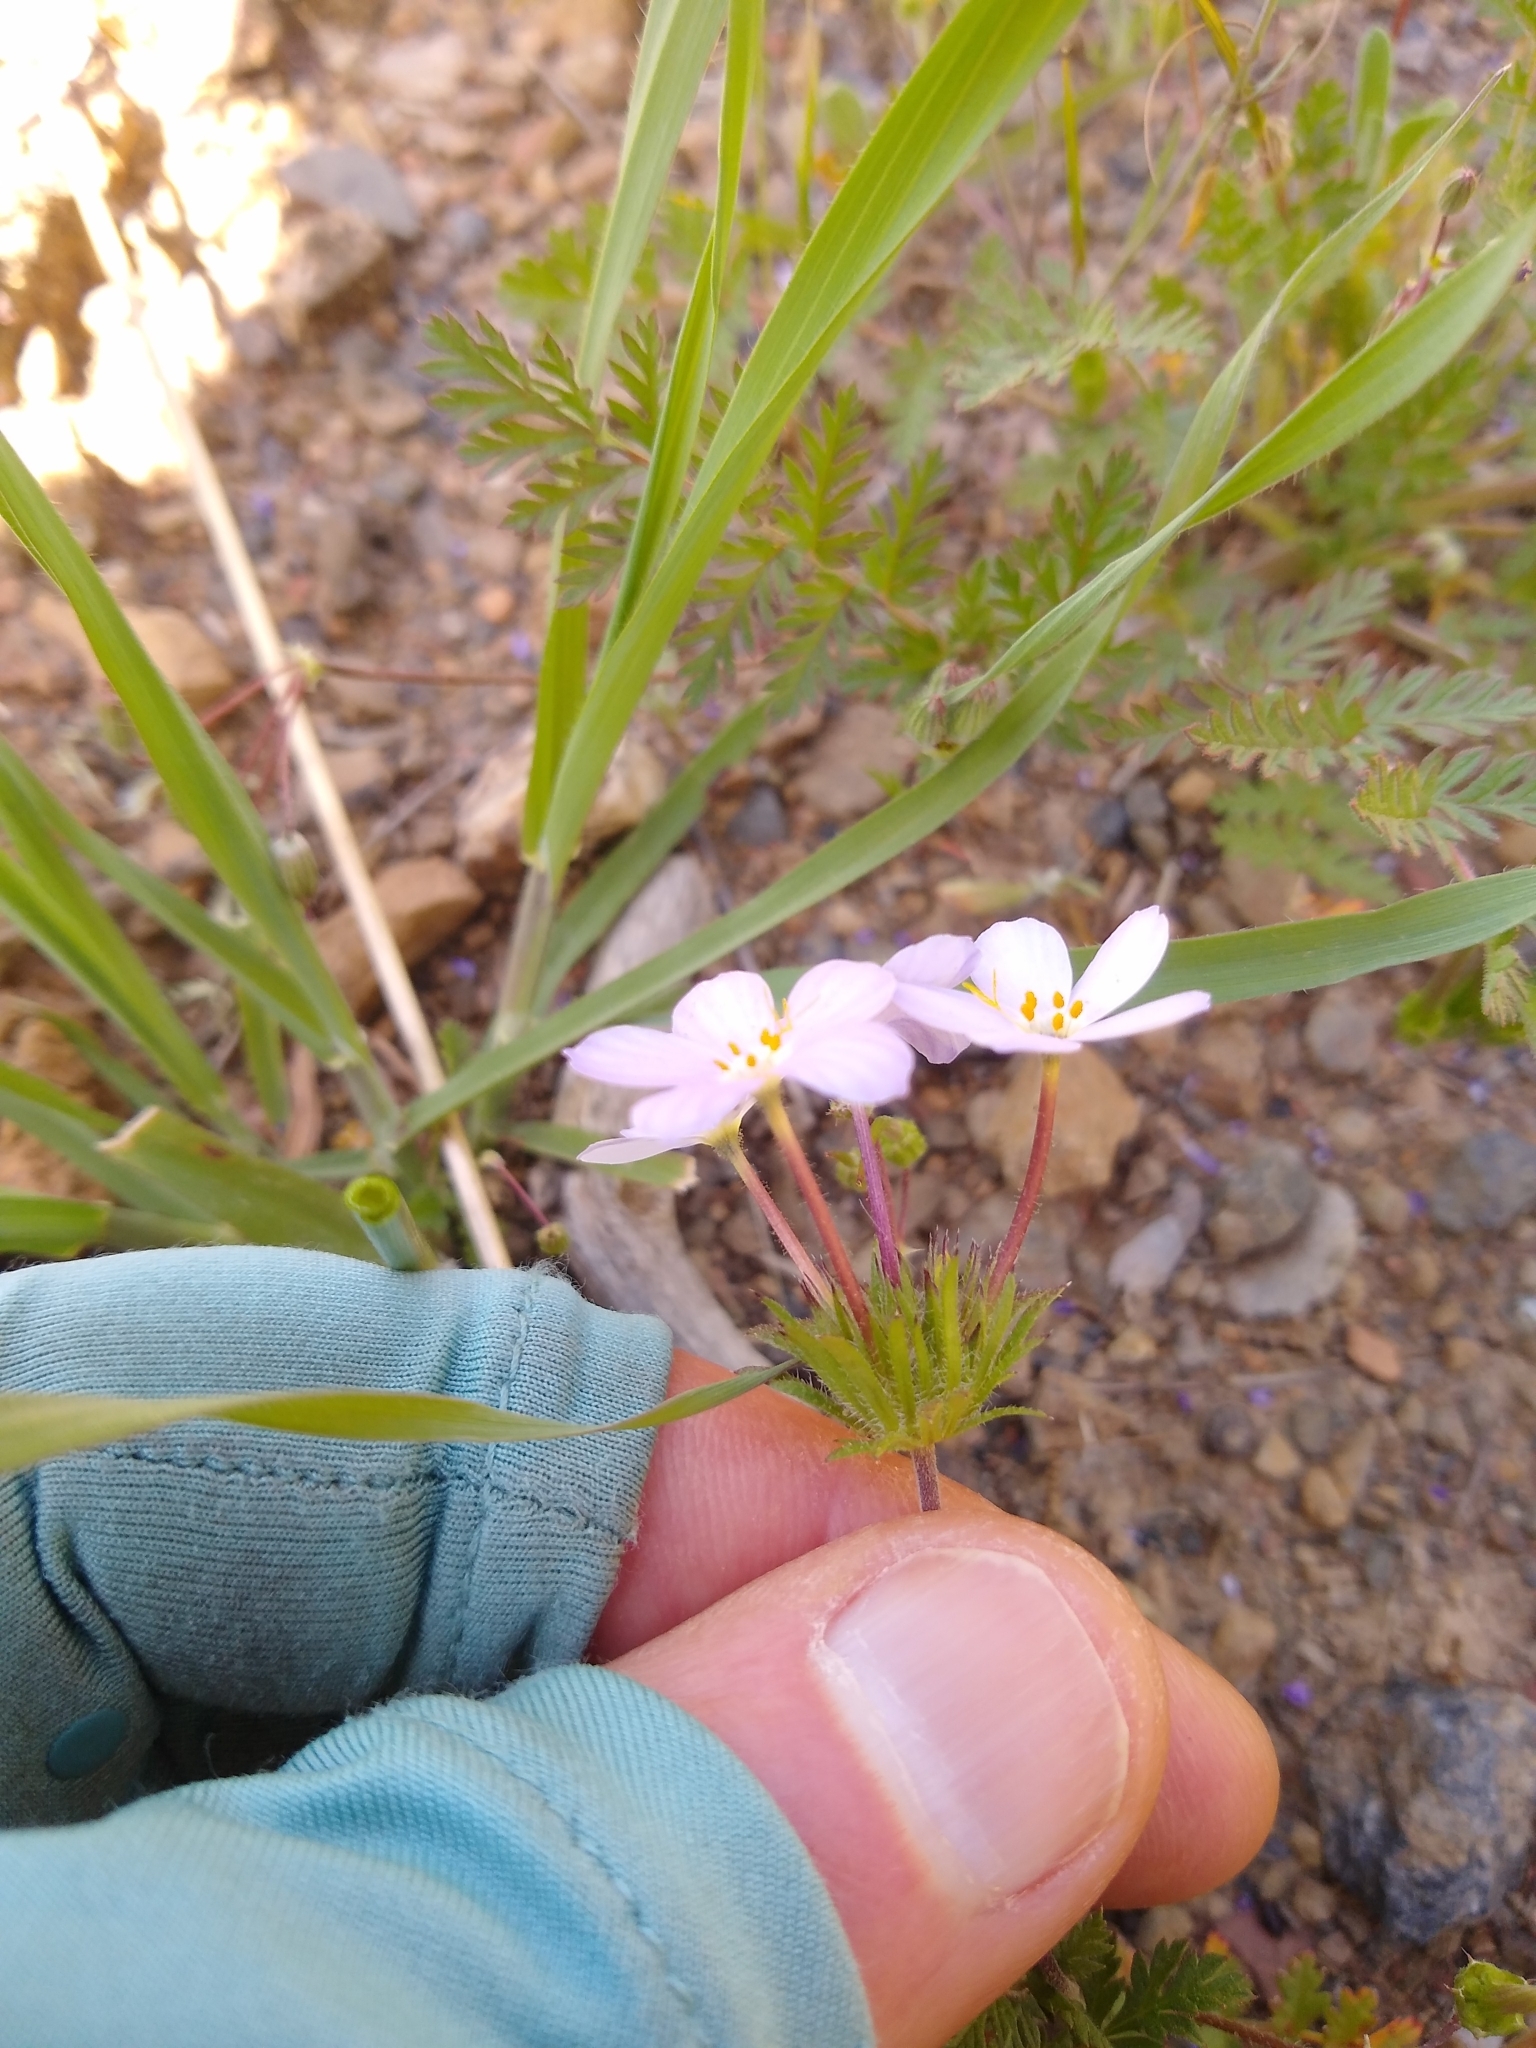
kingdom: Plantae
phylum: Tracheophyta
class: Magnoliopsida
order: Ericales
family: Polemoniaceae
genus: Leptosiphon
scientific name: Leptosiphon androsaceus
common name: False babystars
